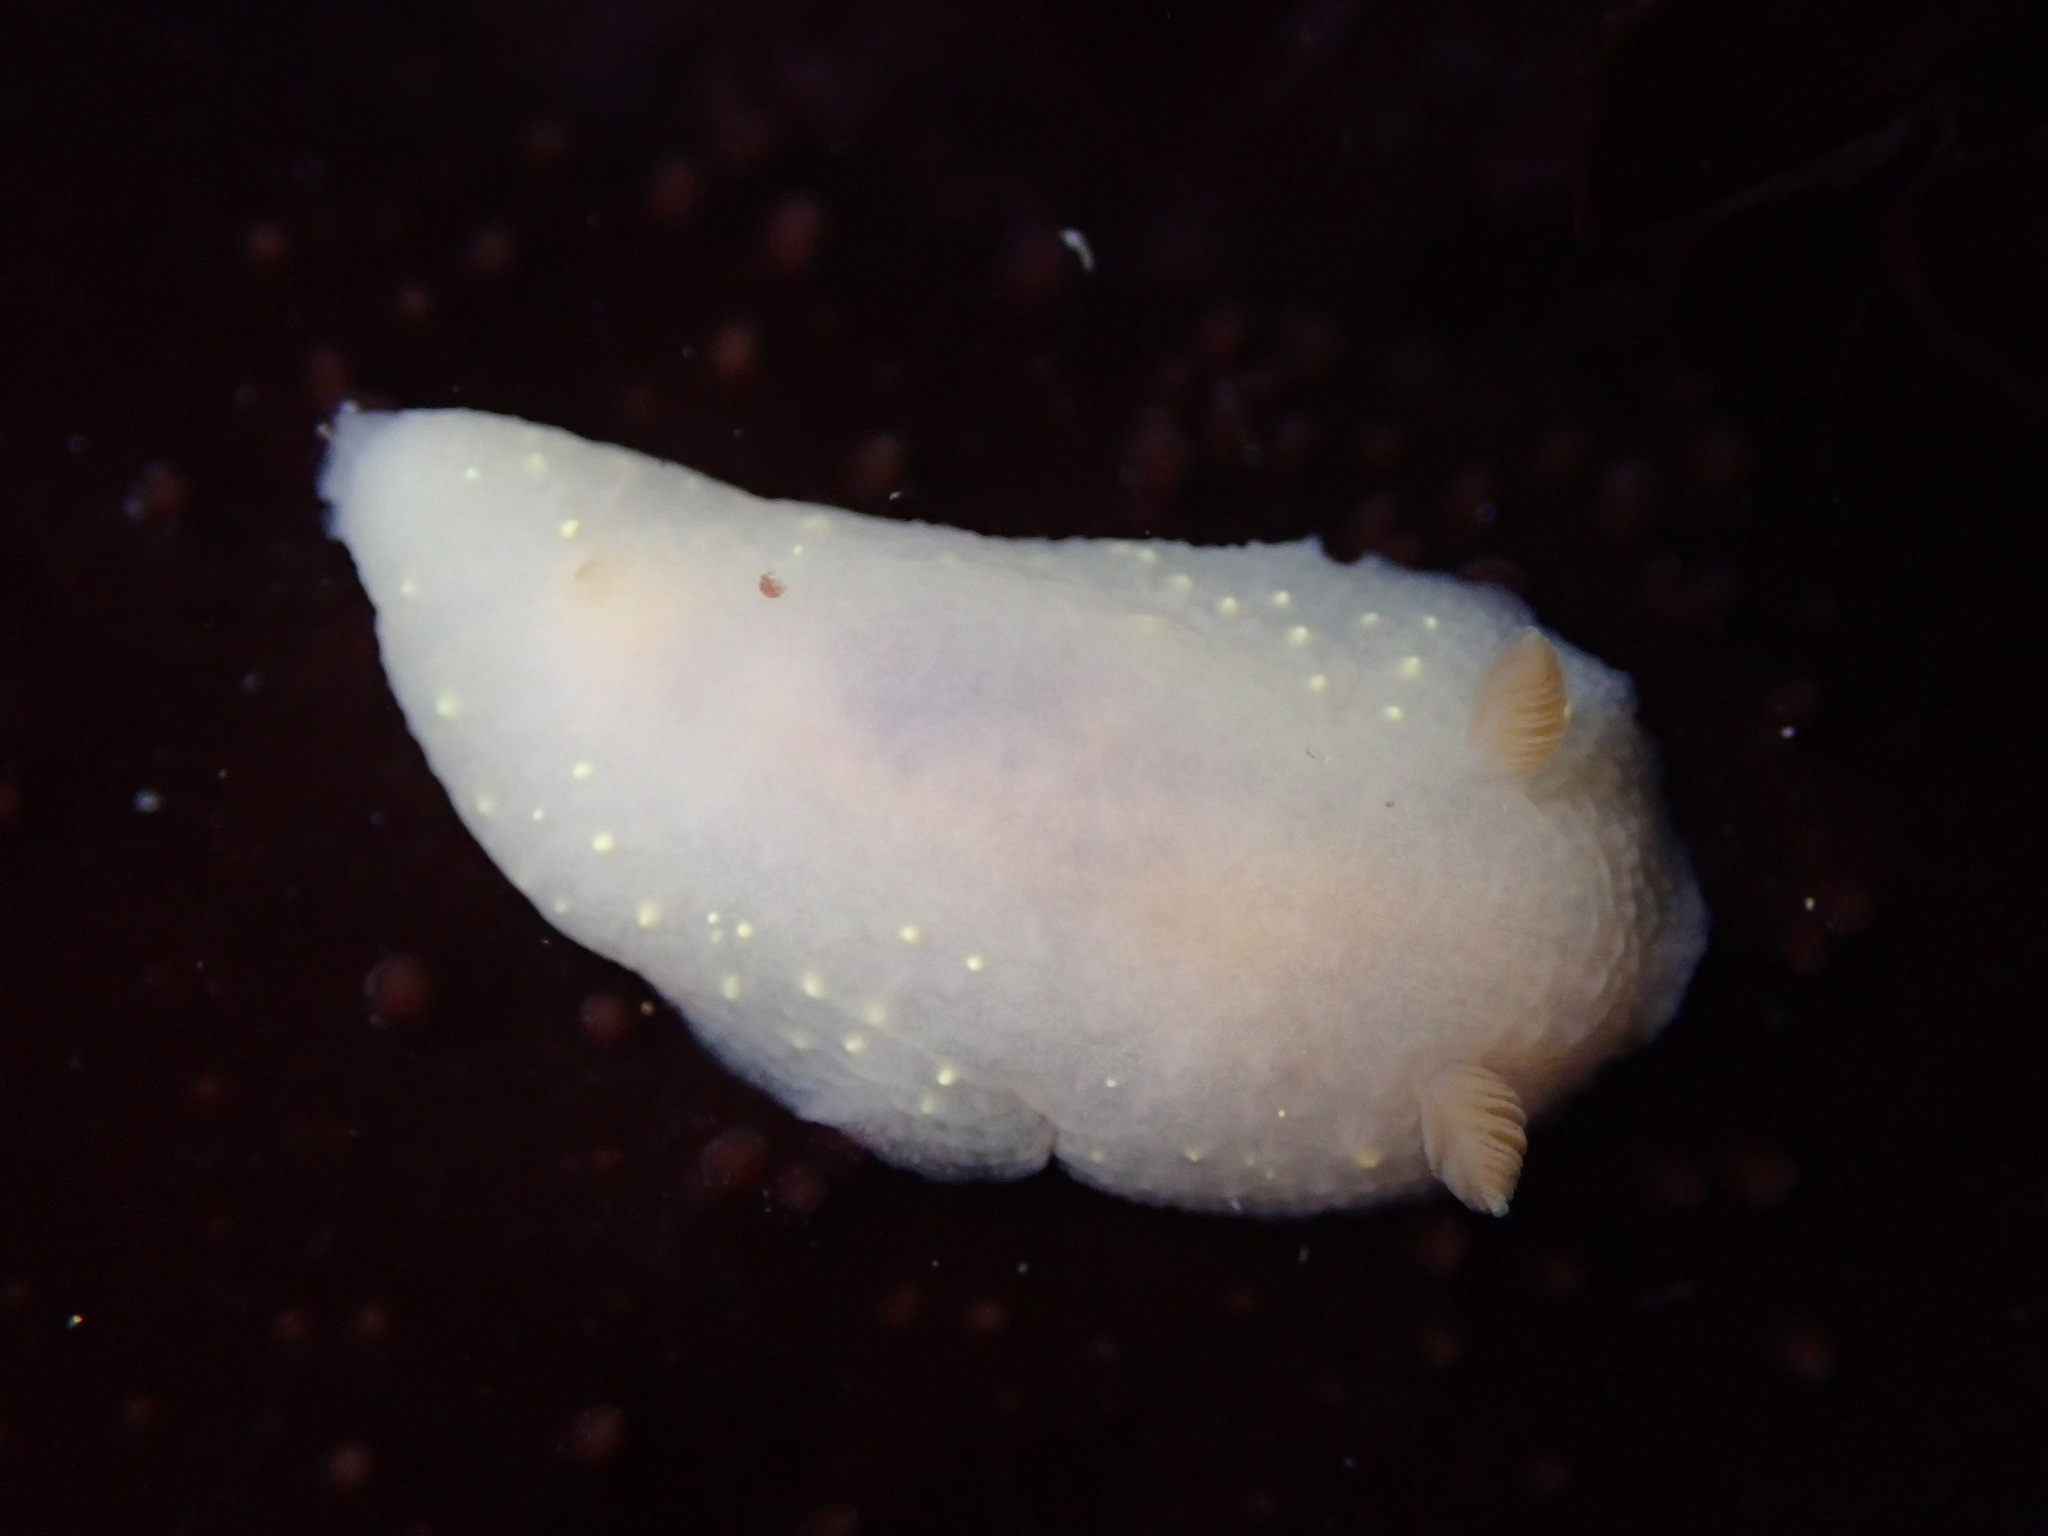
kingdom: Animalia
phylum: Mollusca
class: Gastropoda
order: Nudibranchia
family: Cadlinidae
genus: Cadlina
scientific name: Cadlina modesta
